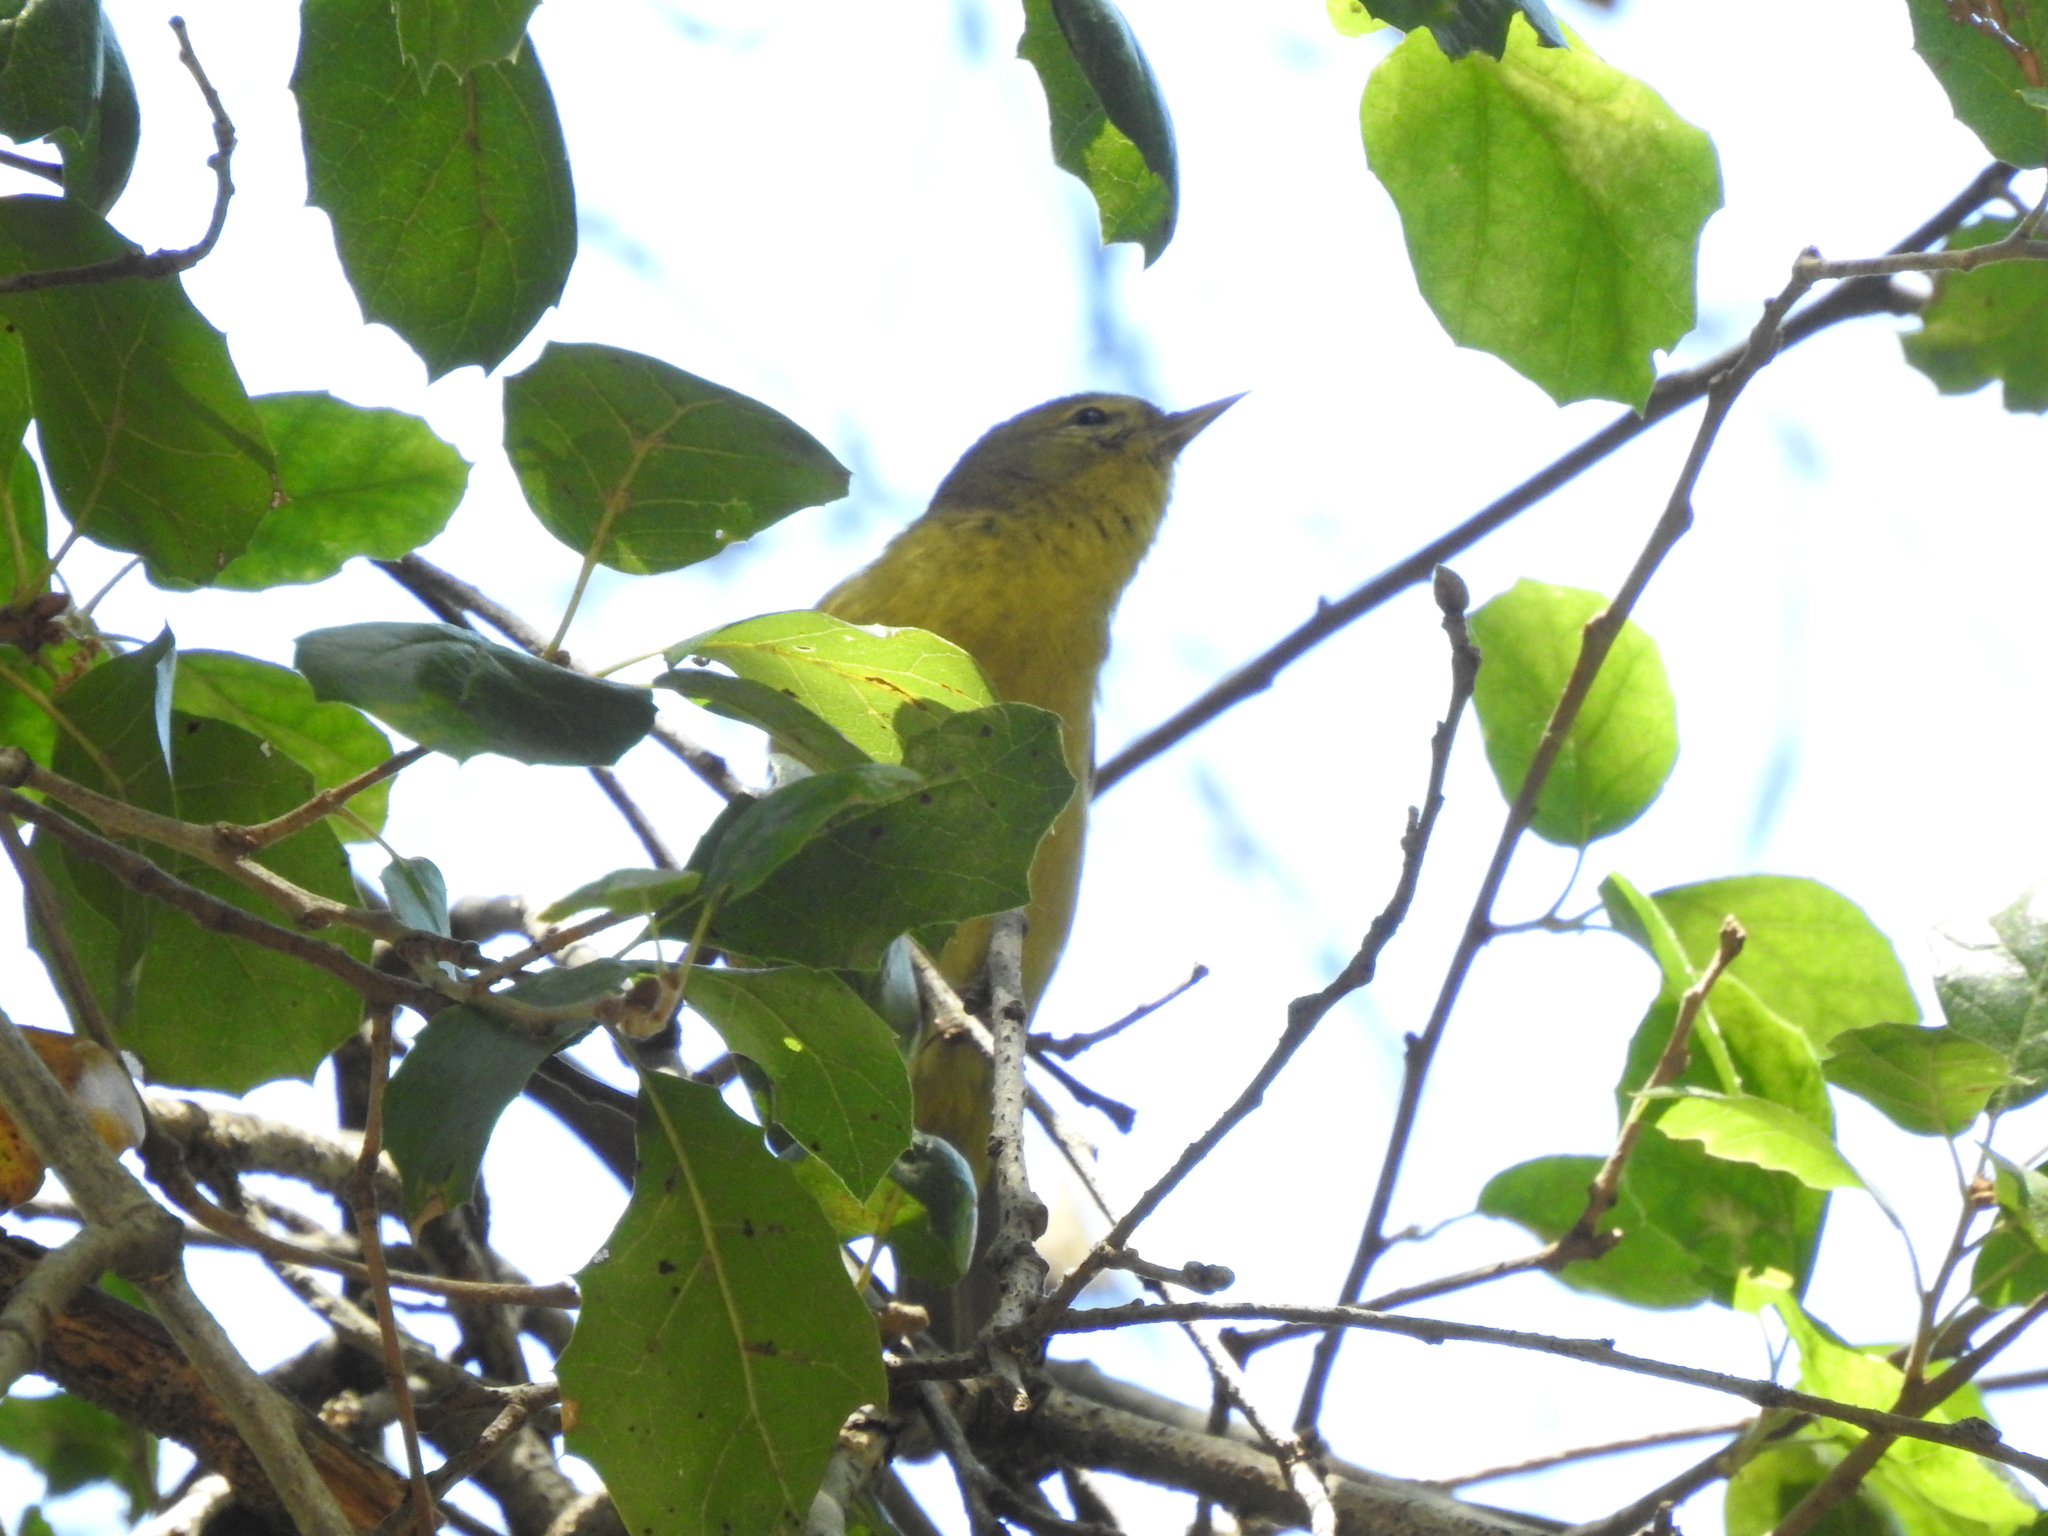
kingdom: Animalia
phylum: Chordata
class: Aves
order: Passeriformes
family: Parulidae
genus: Leiothlypis
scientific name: Leiothlypis celata
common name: Orange-crowned warbler
